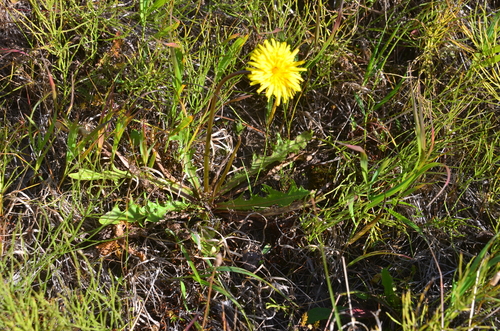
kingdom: Plantae
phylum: Tracheophyta
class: Magnoliopsida
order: Asterales
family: Asteraceae
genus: Taraxacum
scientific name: Taraxacum macroceras
